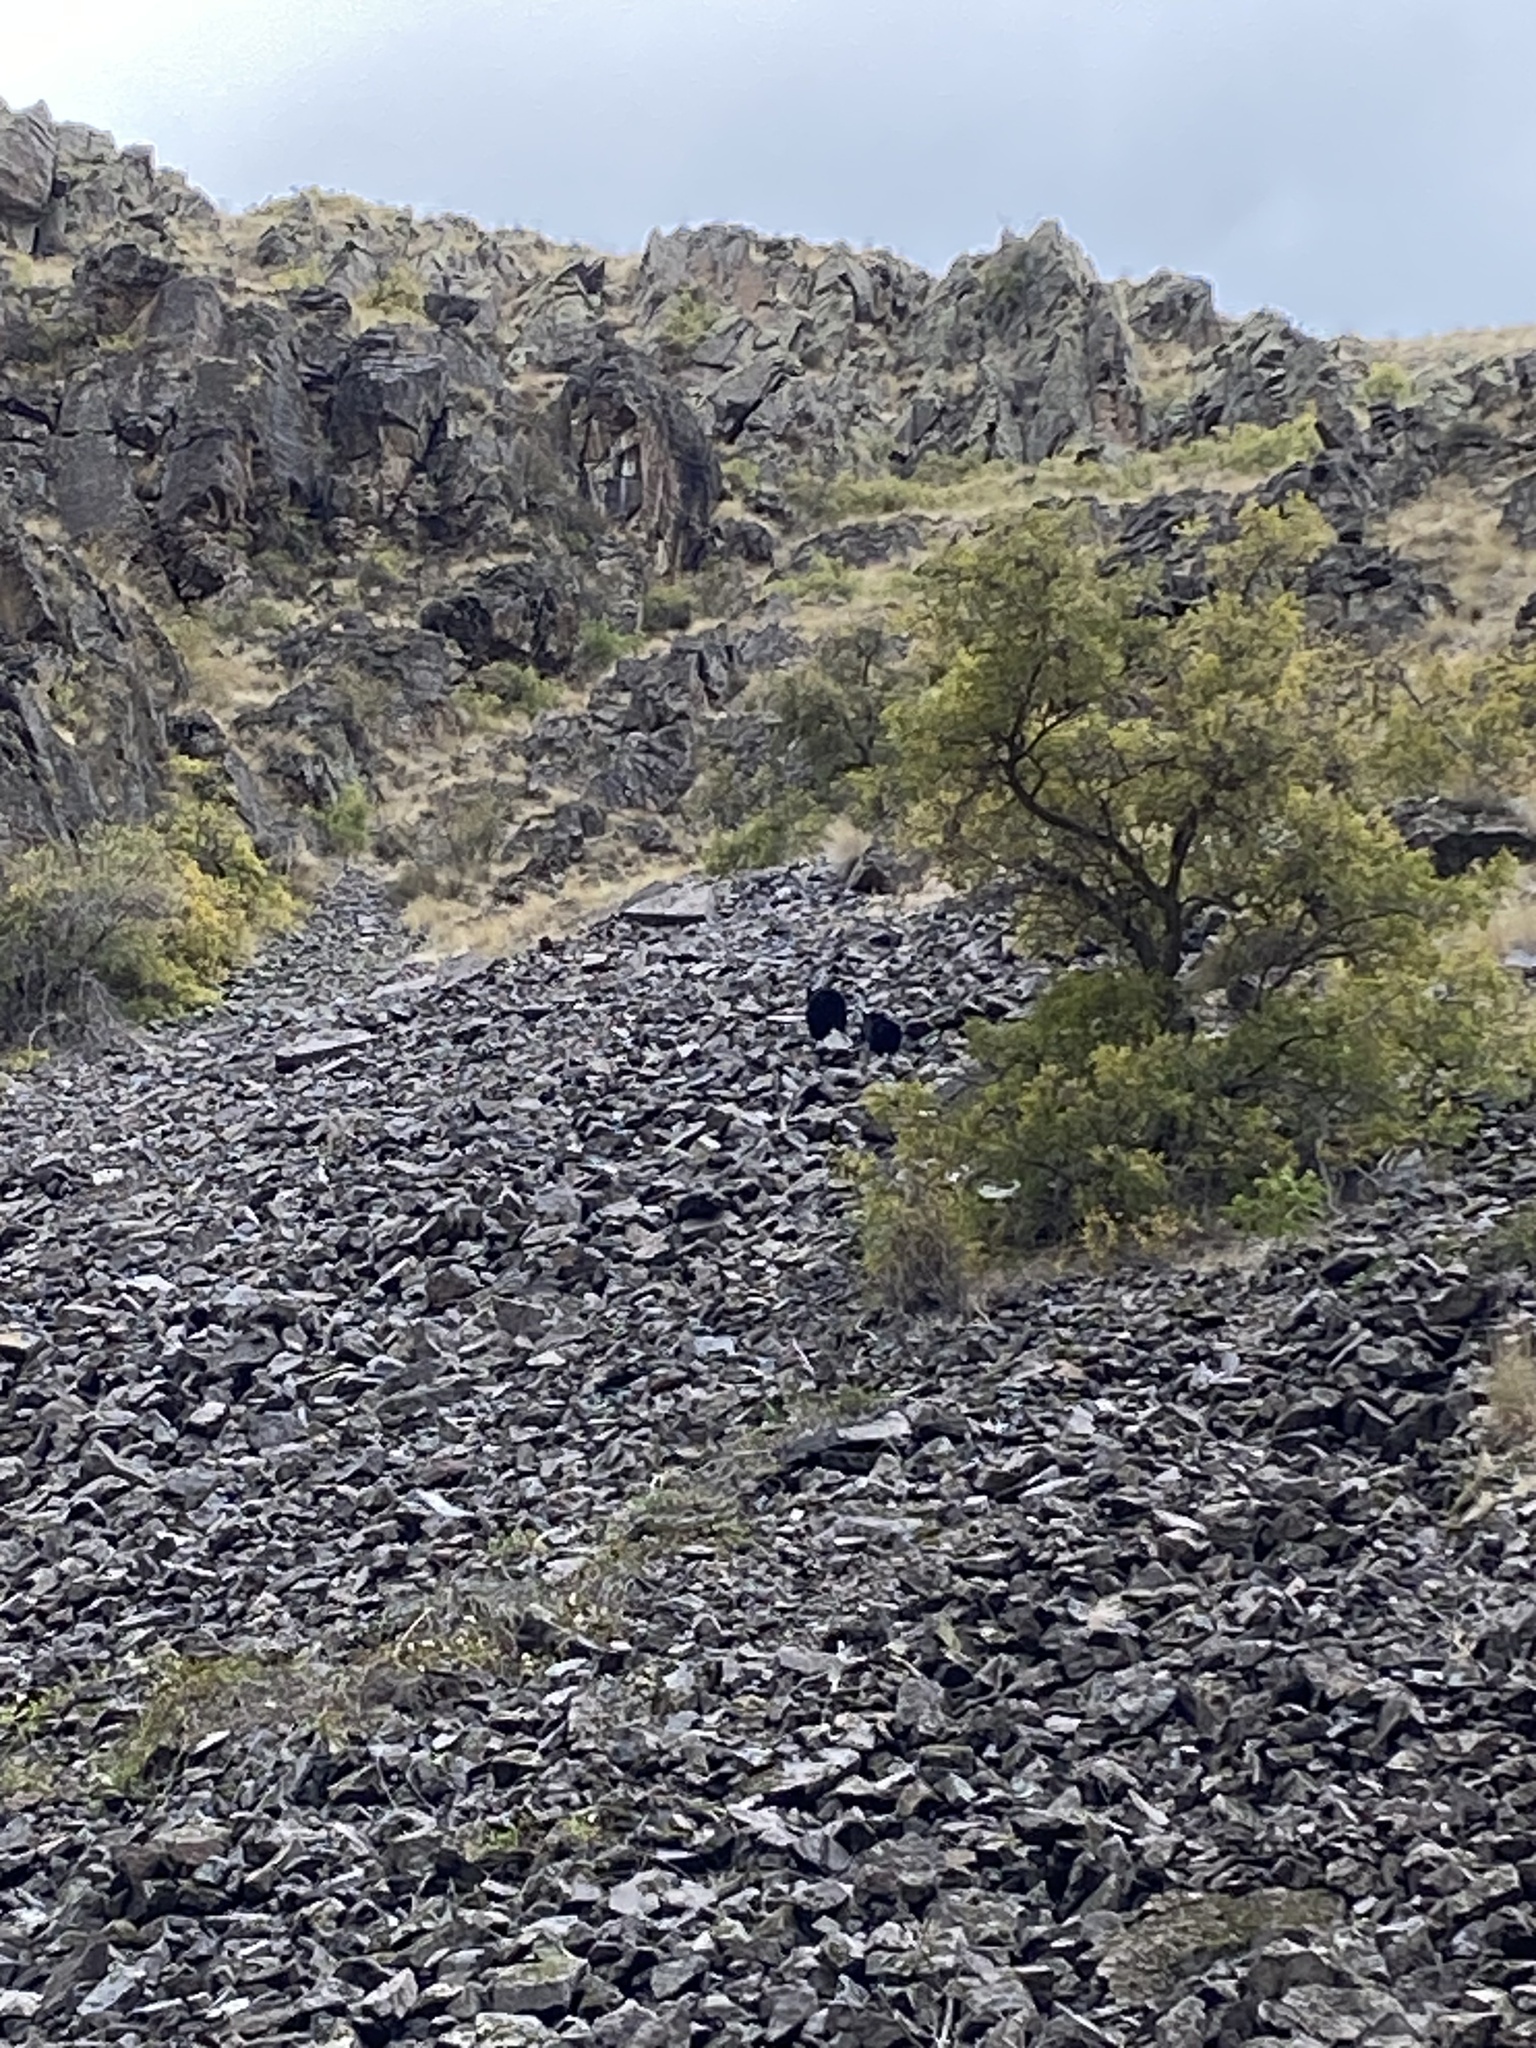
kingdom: Animalia
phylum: Chordata
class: Mammalia
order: Carnivora
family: Ursidae
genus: Ursus
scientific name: Ursus americanus
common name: American black bear
